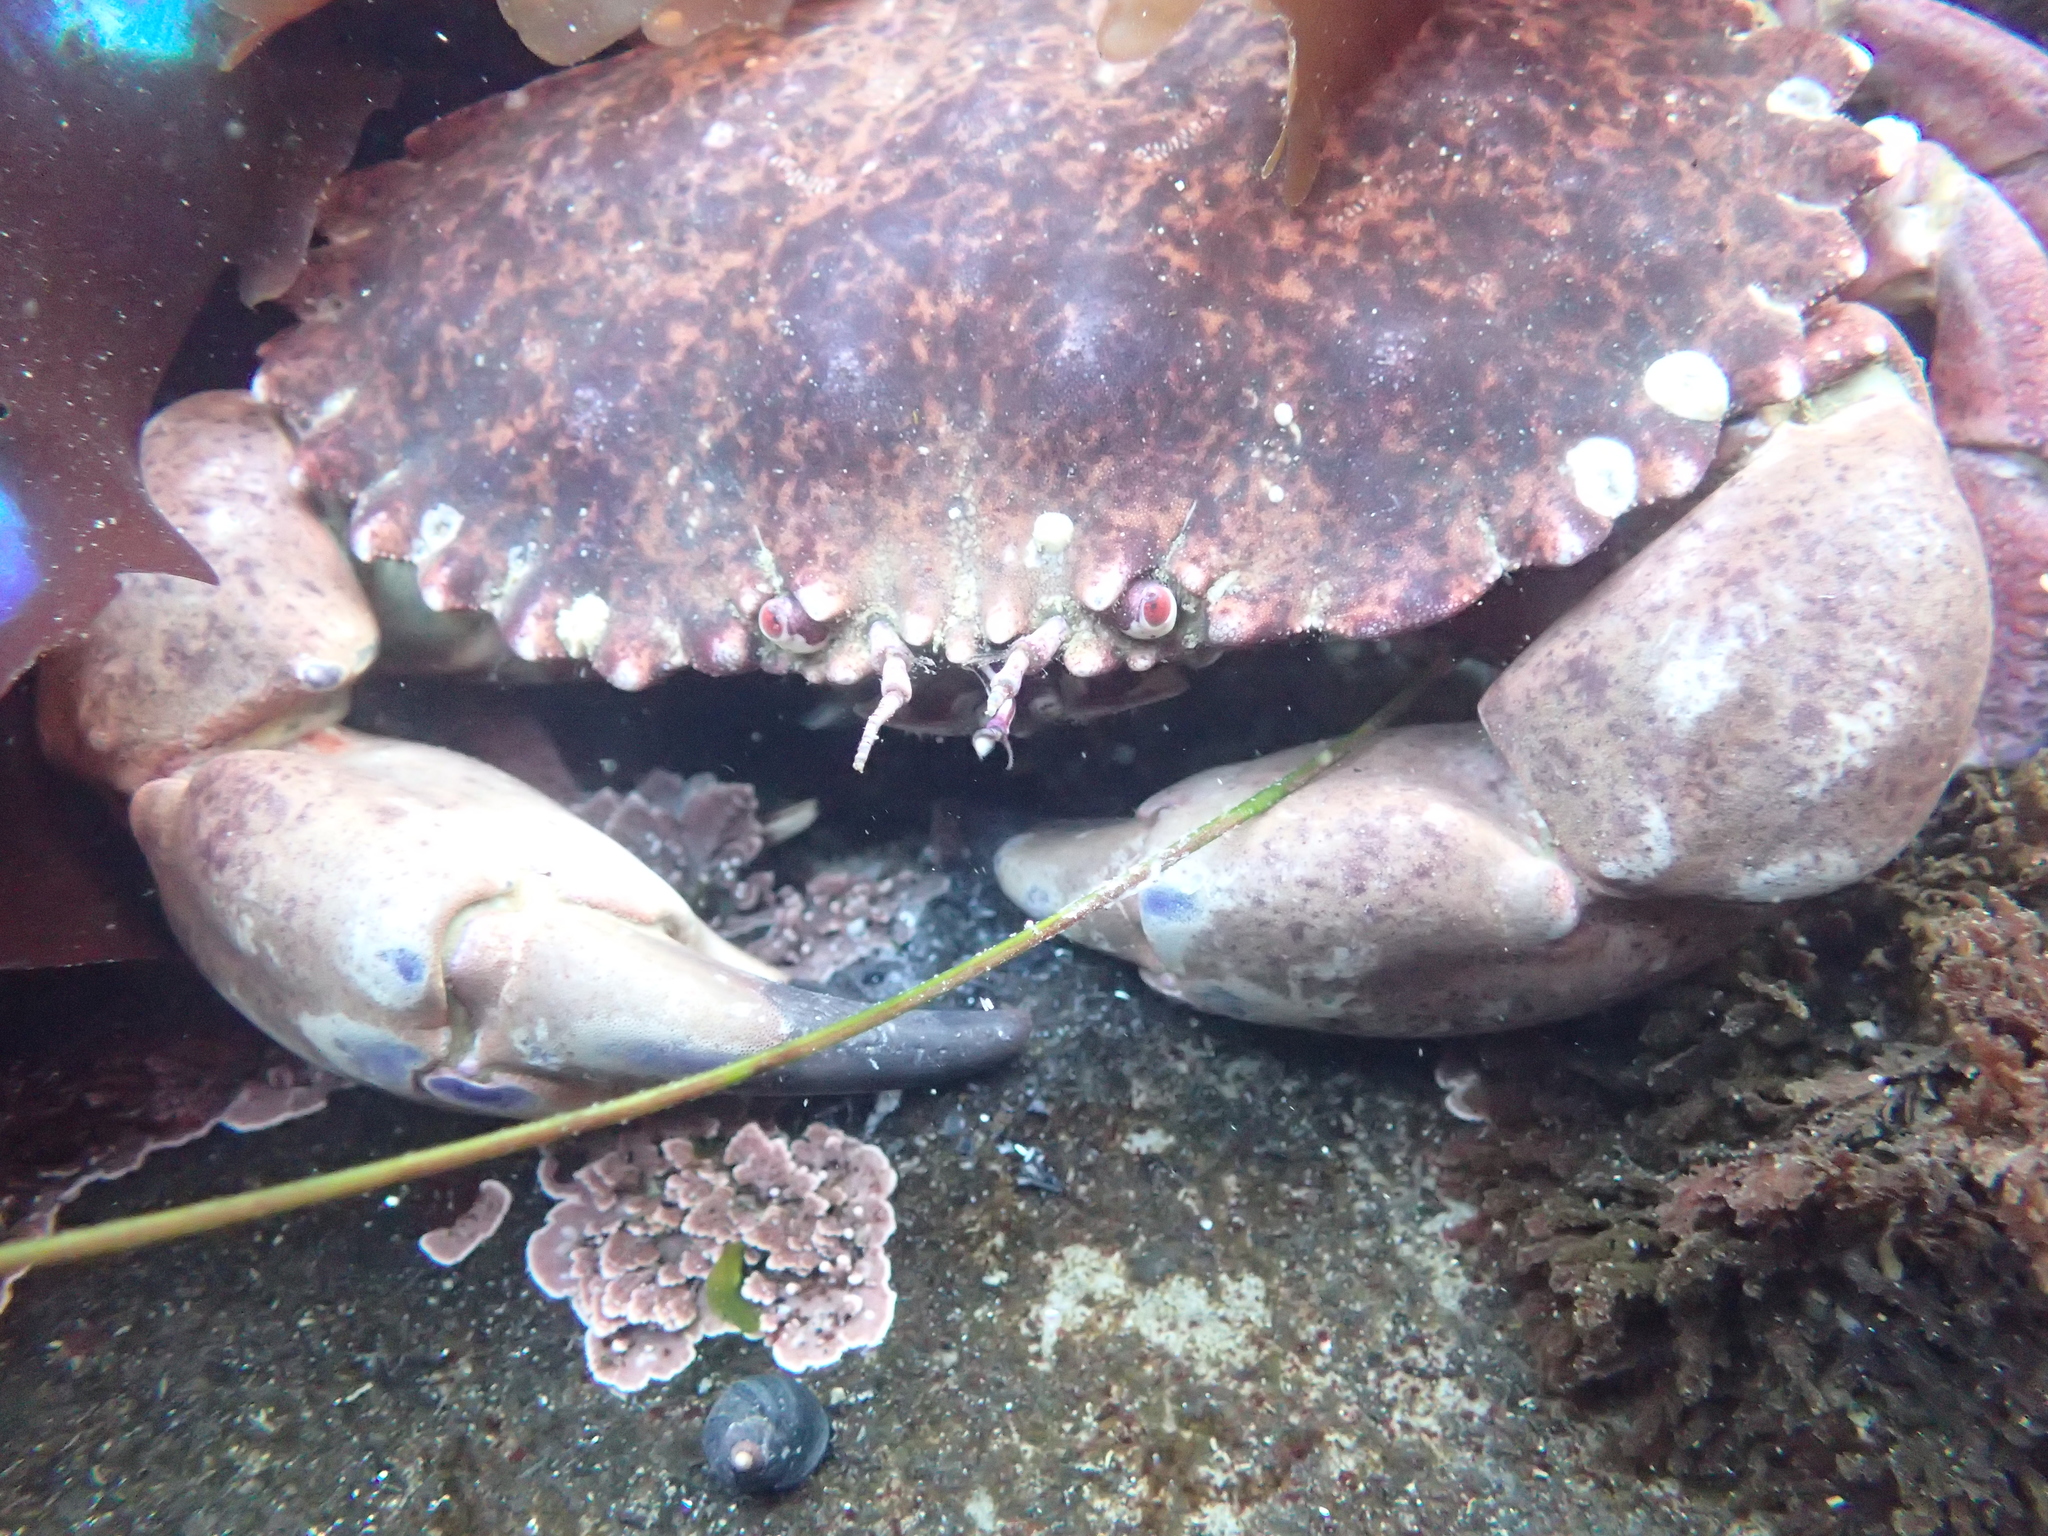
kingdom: Animalia
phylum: Arthropoda
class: Malacostraca
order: Decapoda
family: Cancridae
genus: Romaleon
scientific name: Romaleon antennarium
